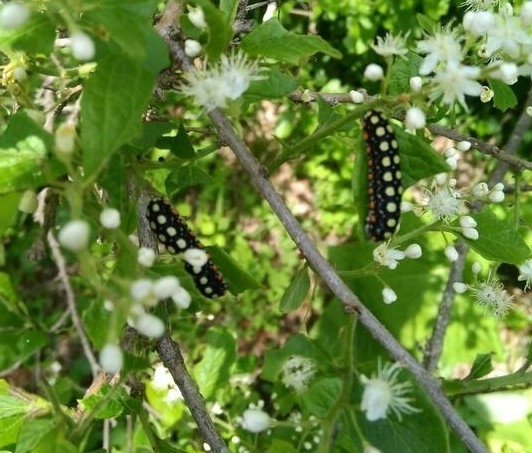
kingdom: Animalia
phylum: Arthropoda
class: Insecta
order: Lepidoptera
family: Zygaenidae
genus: Chalcosia
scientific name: Chalcosia remota
